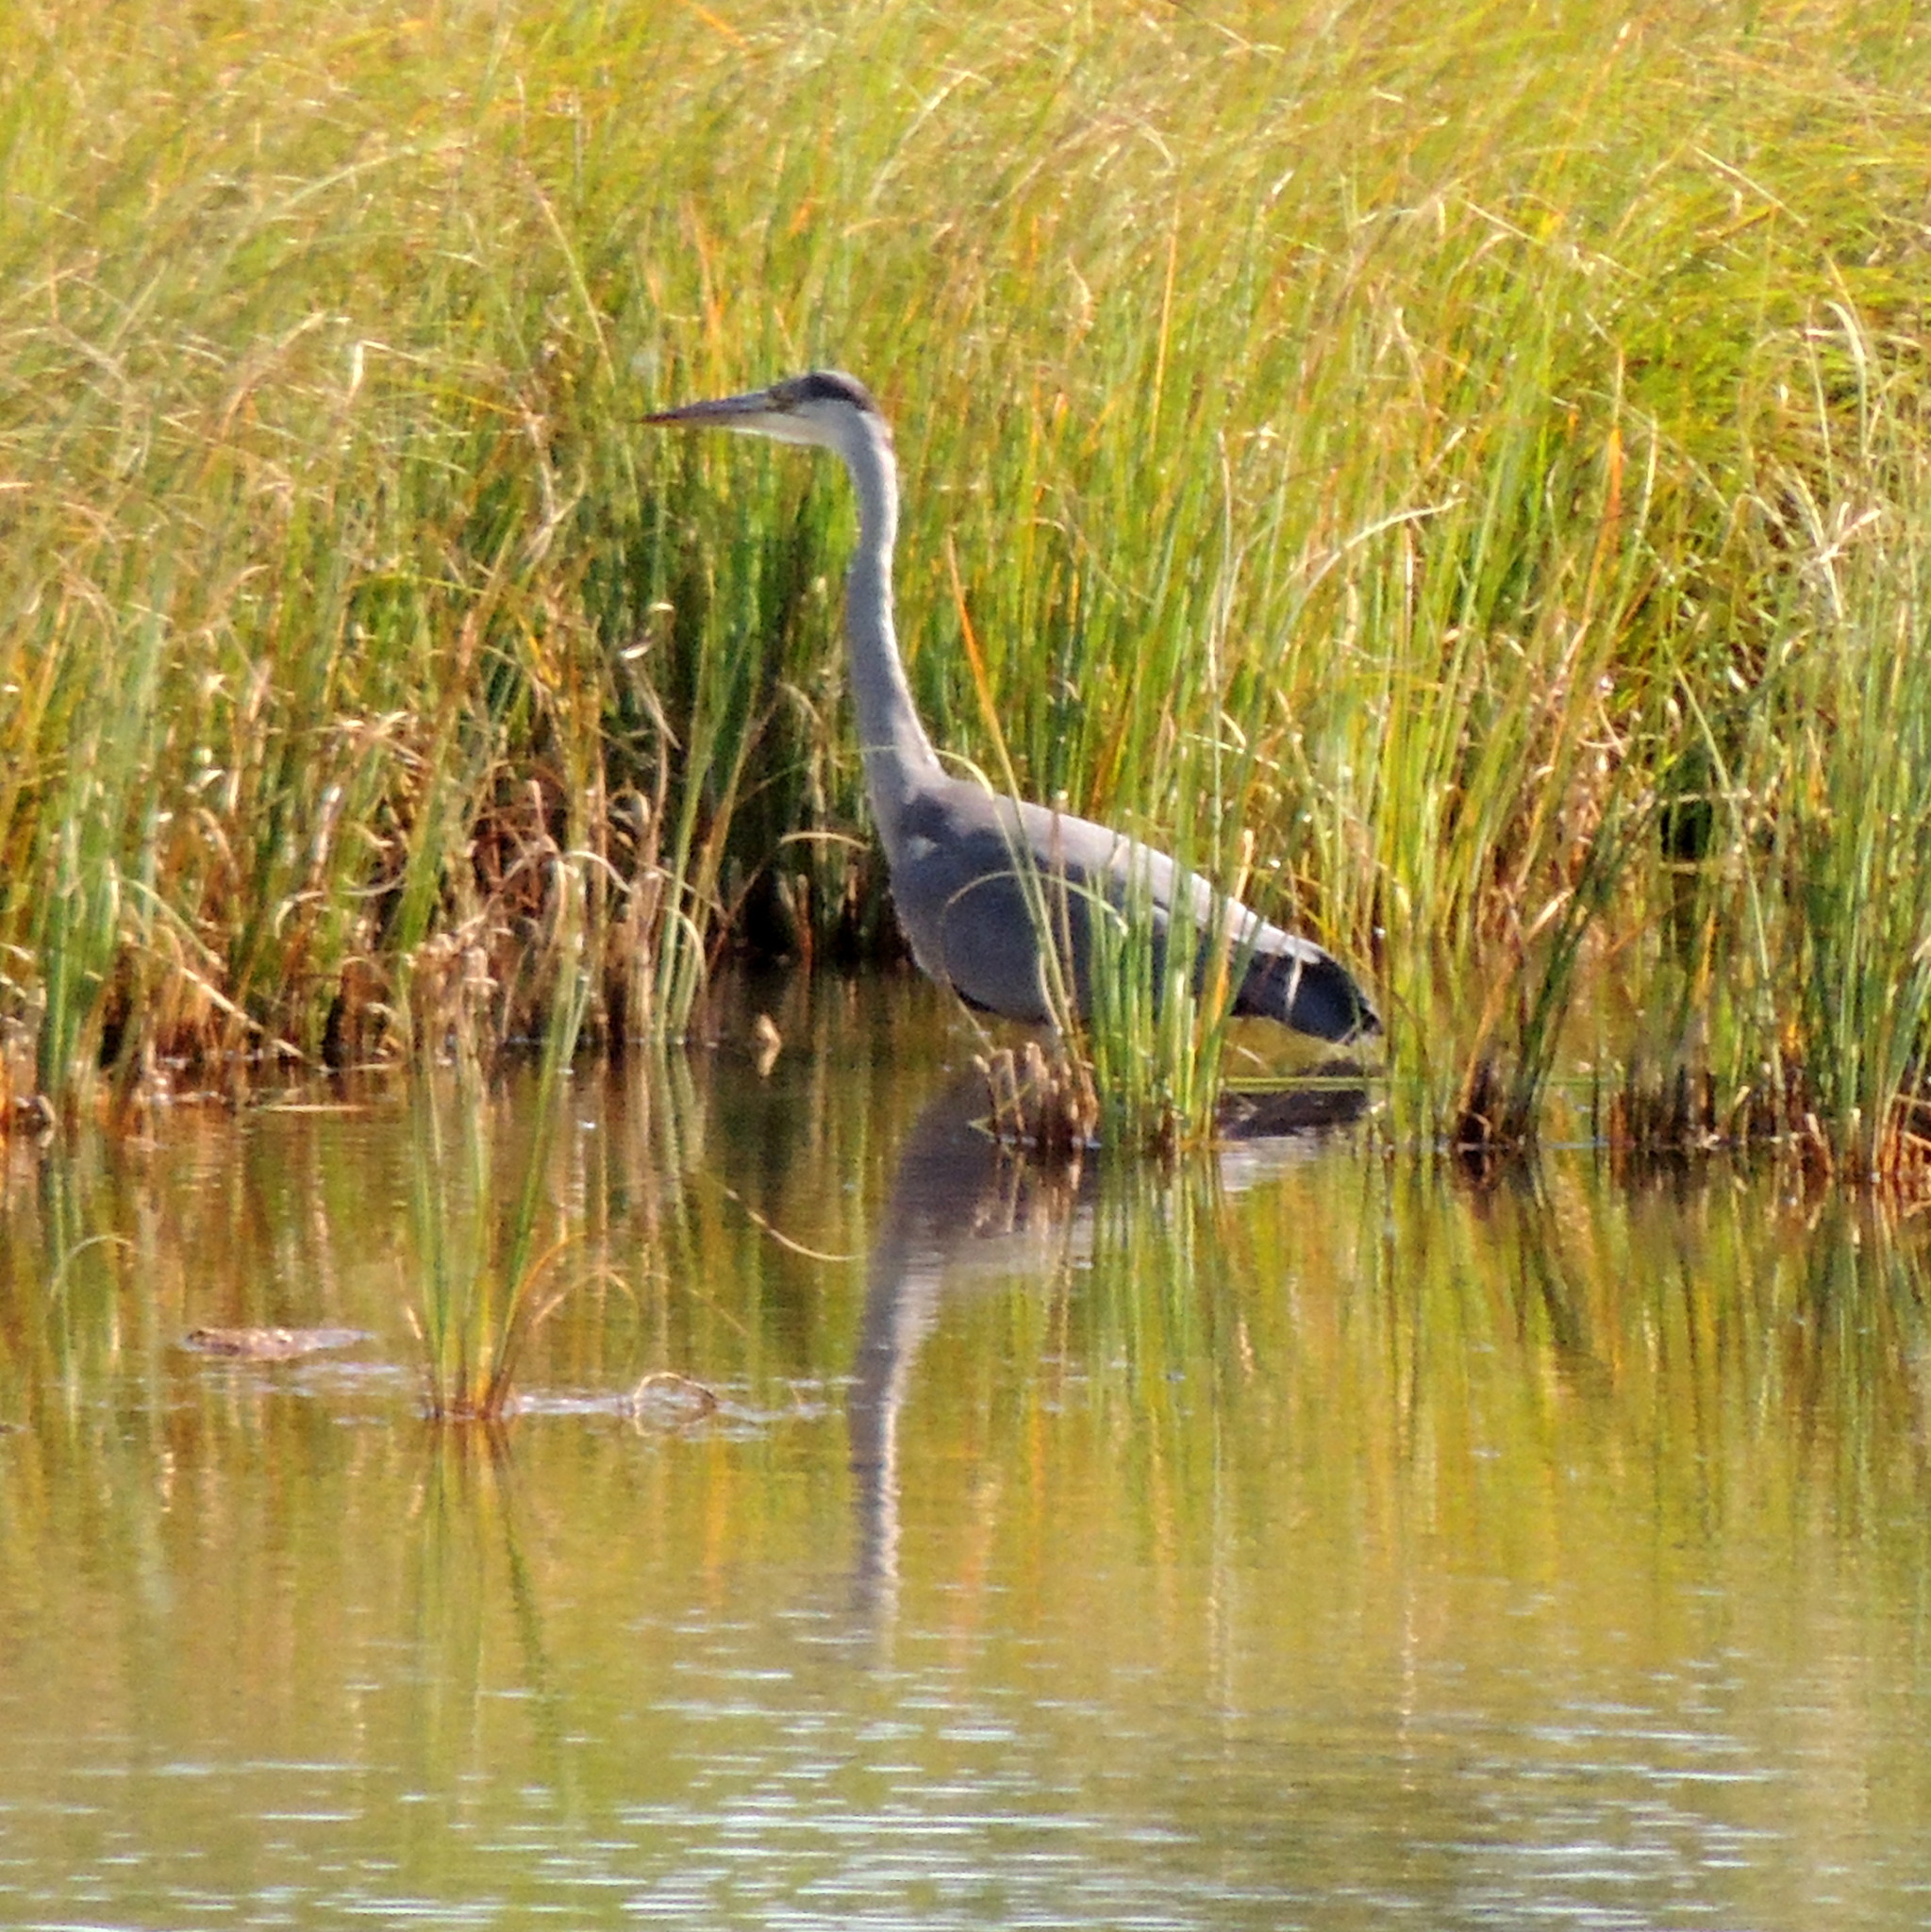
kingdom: Animalia
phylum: Chordata
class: Aves
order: Pelecaniformes
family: Ardeidae
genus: Ardea
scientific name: Ardea cinerea
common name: Grey heron
